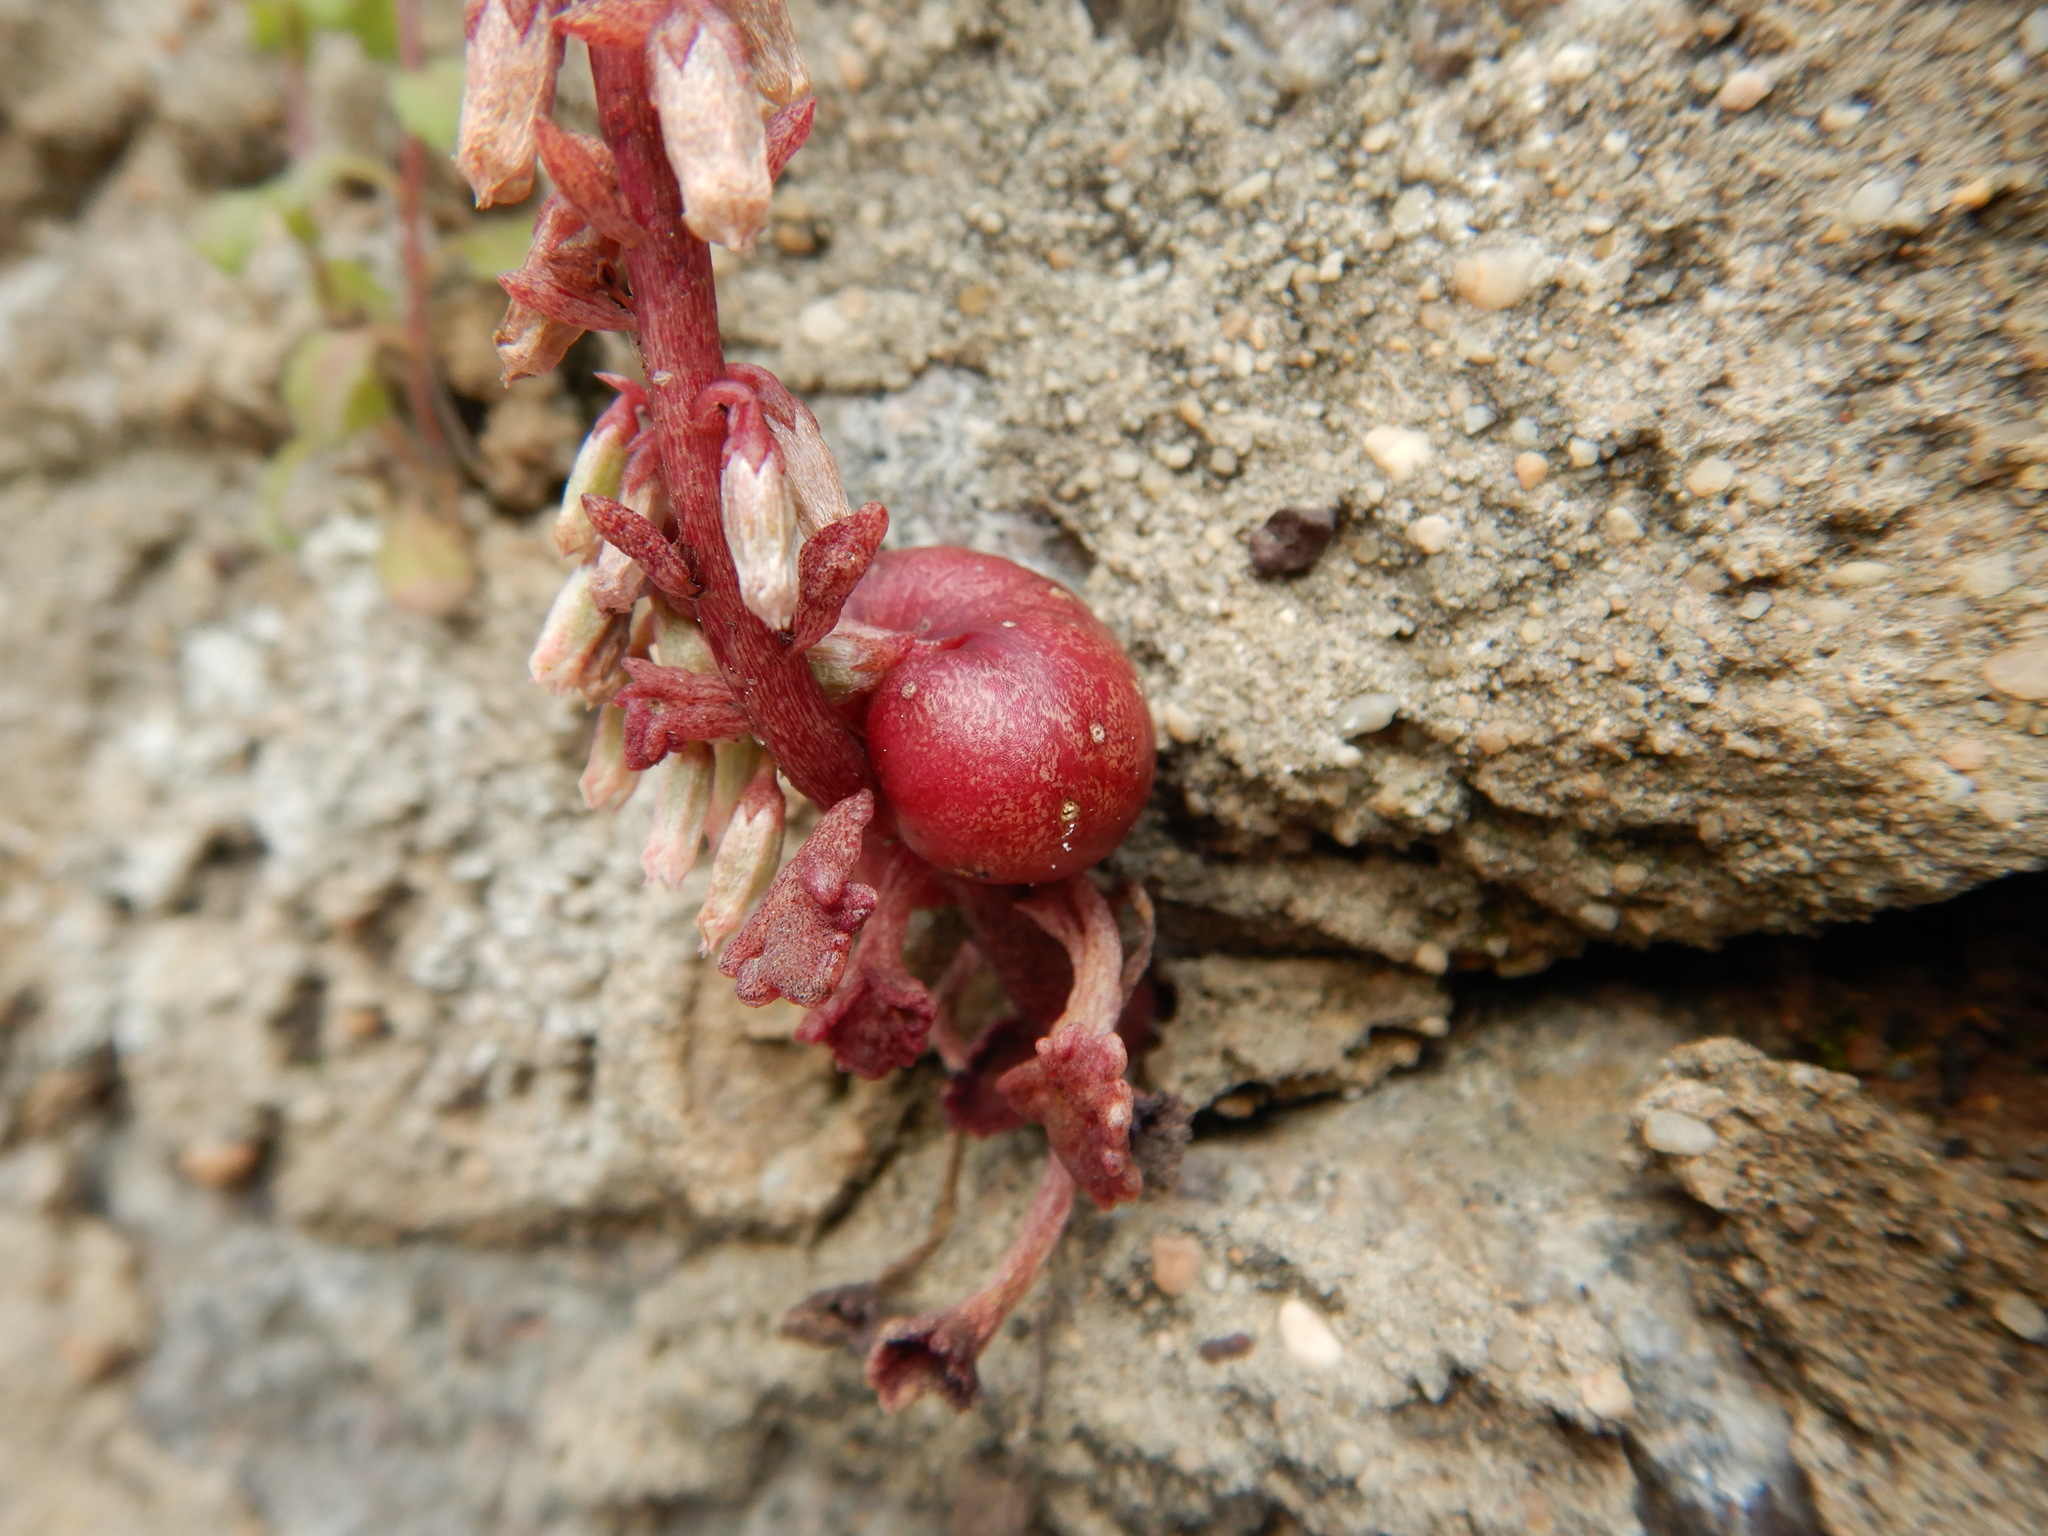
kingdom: Animalia
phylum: Arthropoda
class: Insecta
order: Coleoptera
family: Brentidae
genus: Pericartiellus
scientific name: Pericartiellus durieui
